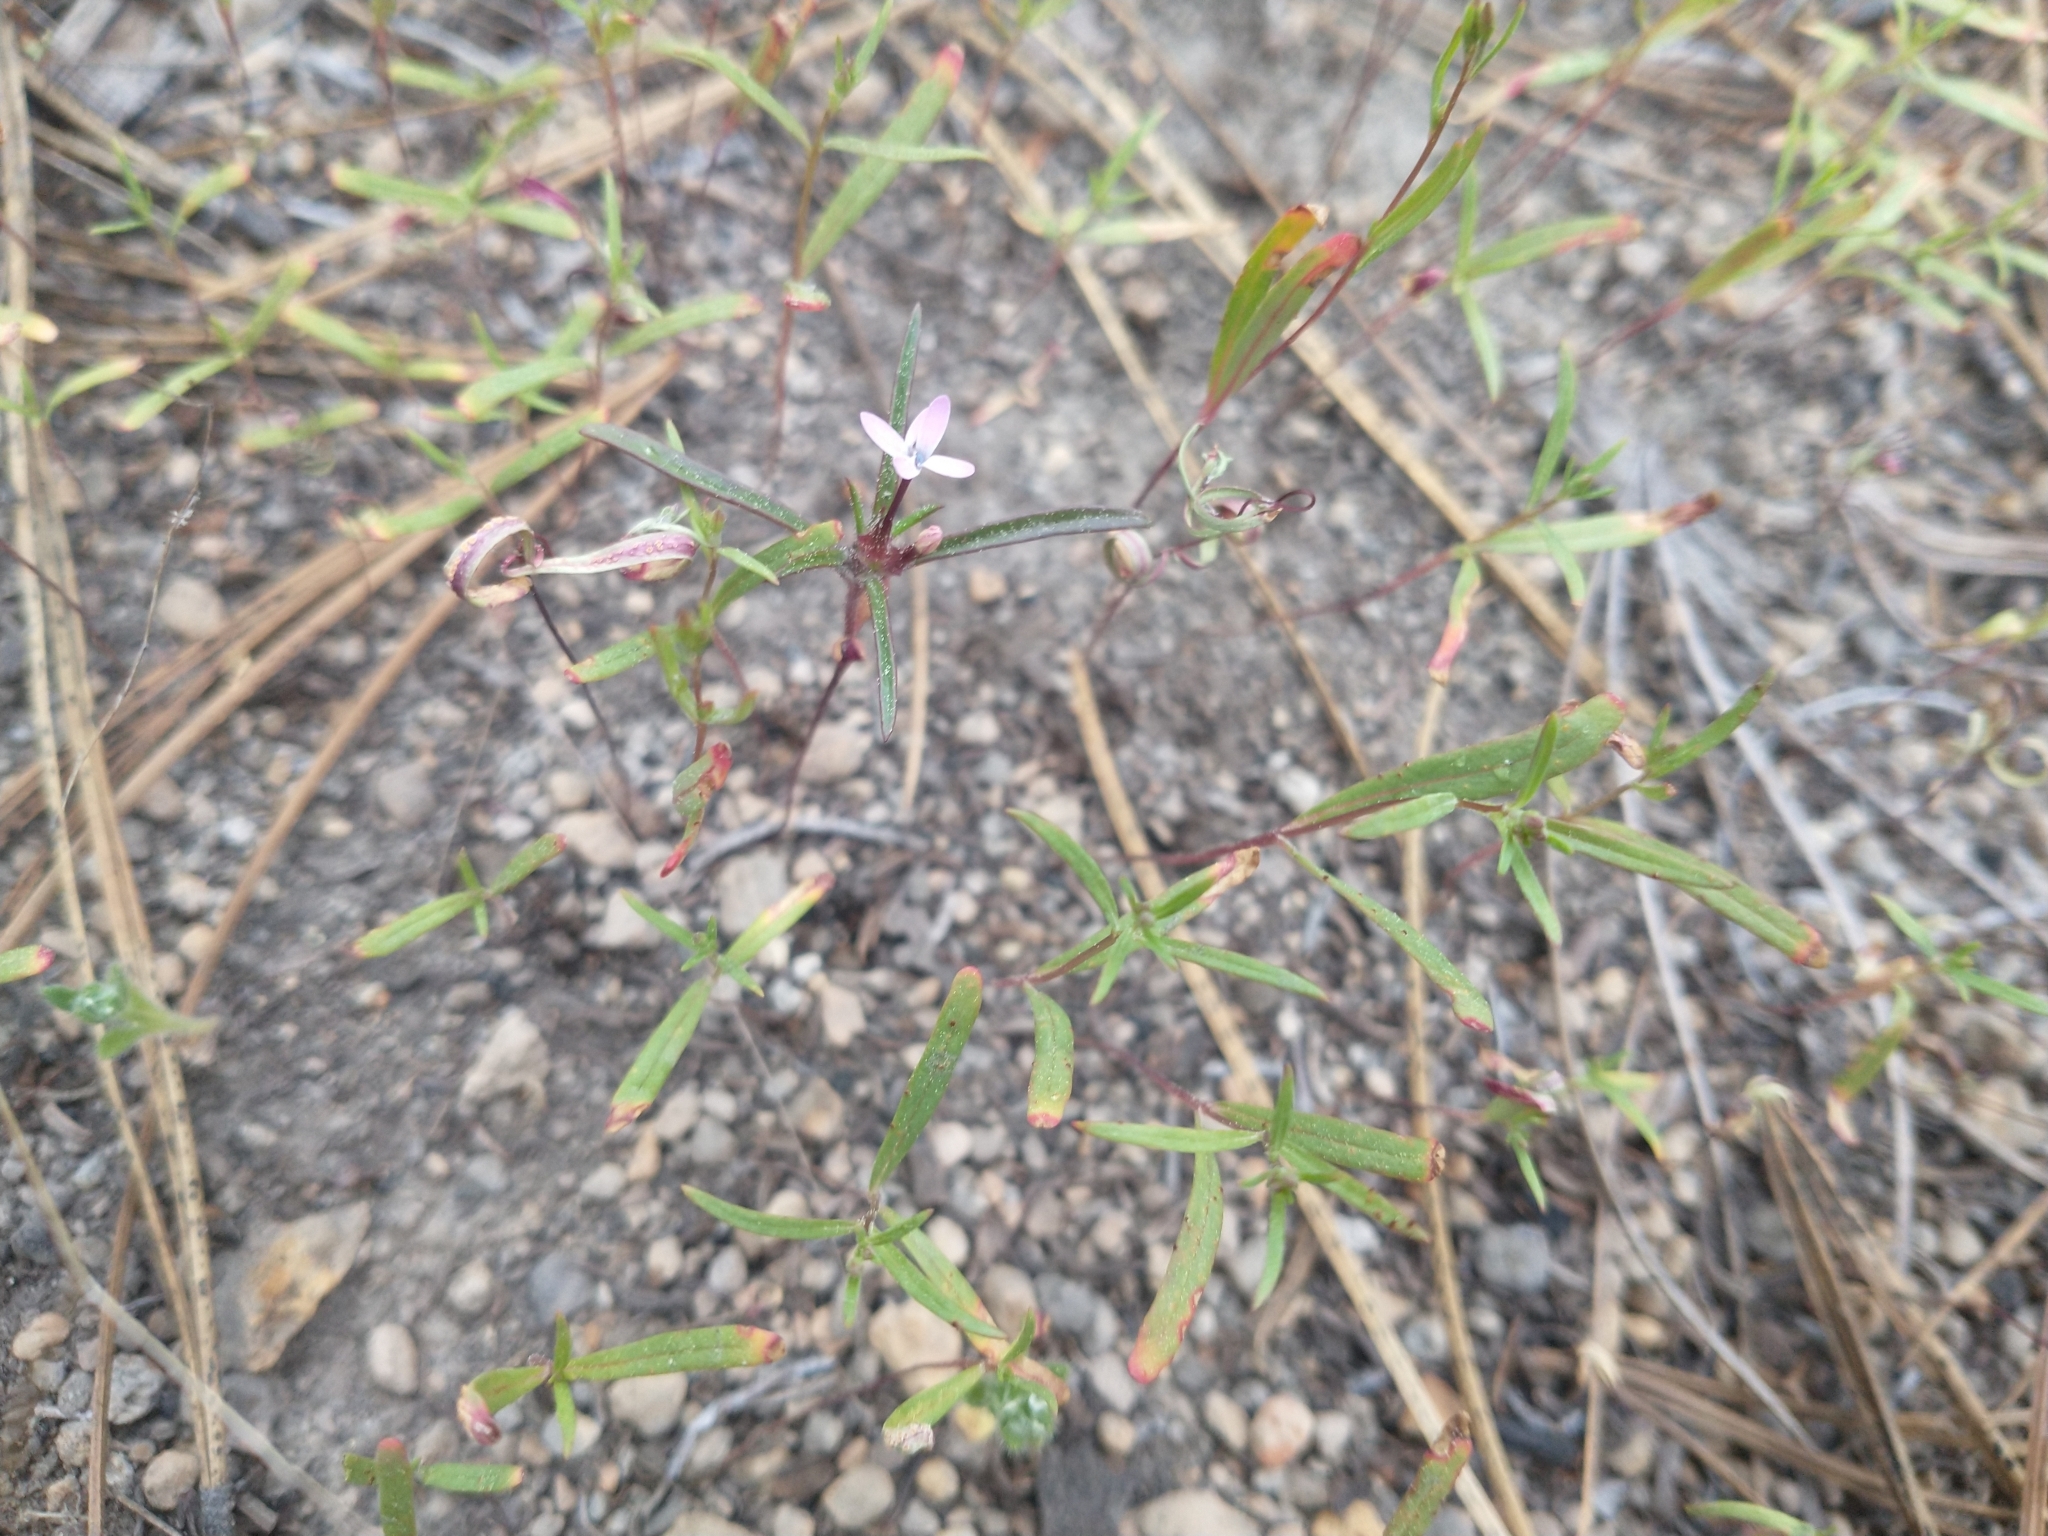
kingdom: Plantae
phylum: Tracheophyta
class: Magnoliopsida
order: Ericales
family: Polemoniaceae
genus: Collomia
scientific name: Collomia tinctoria
